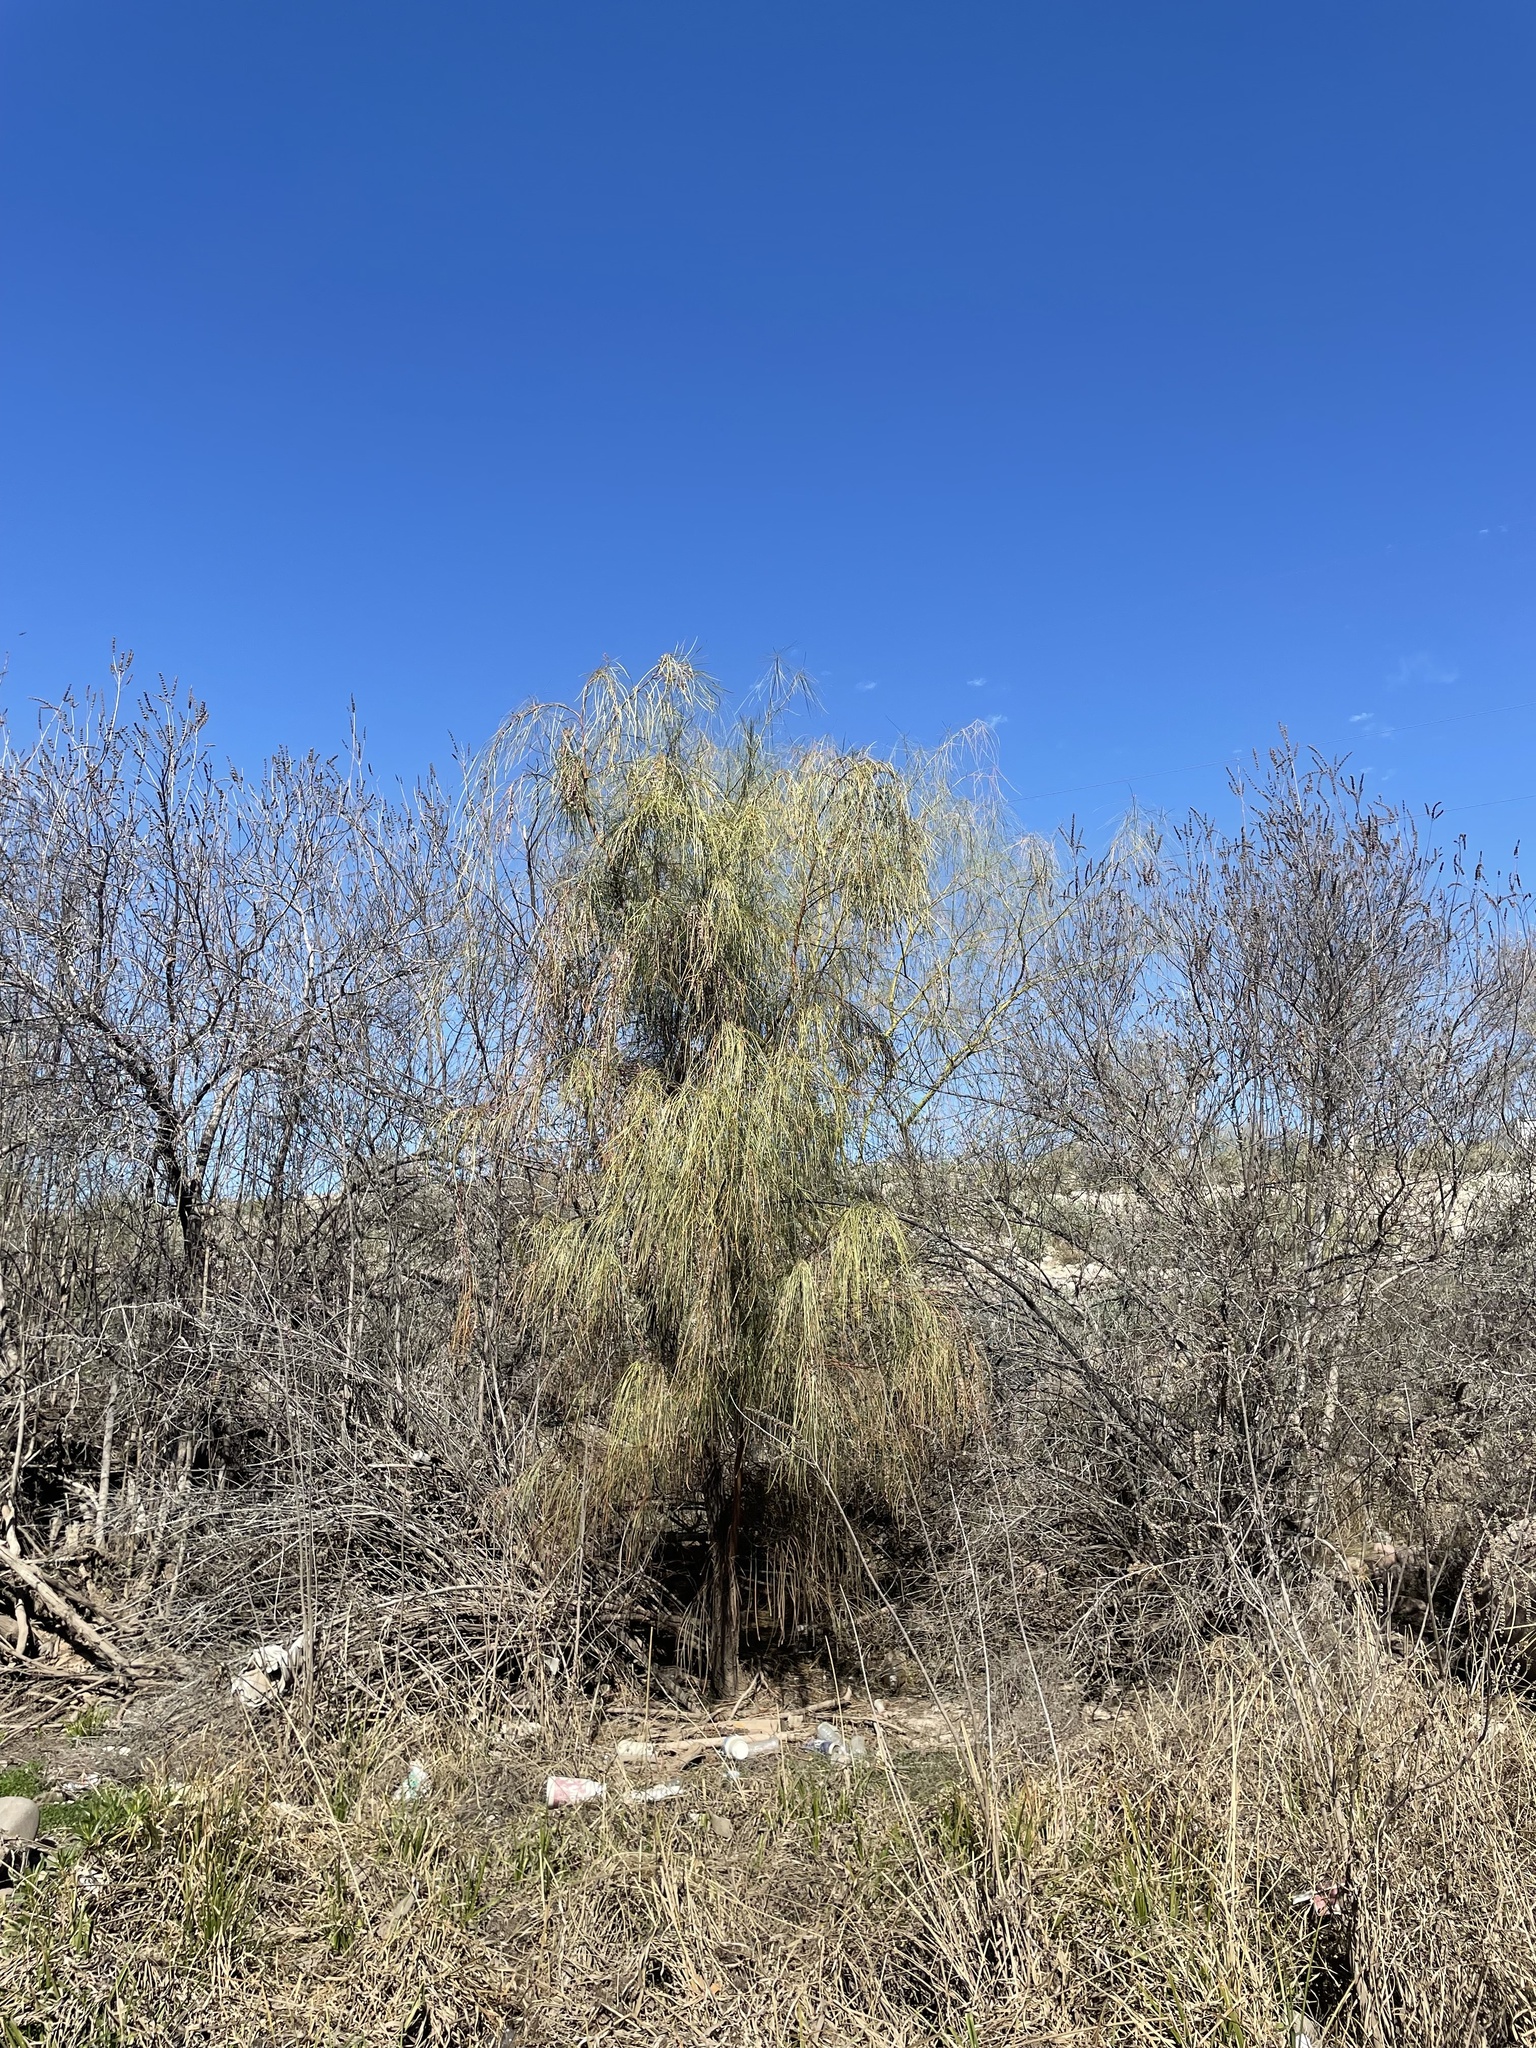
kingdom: Plantae
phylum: Tracheophyta
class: Magnoliopsida
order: Fabales
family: Fabaceae
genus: Acacia
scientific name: Acacia stenophylla
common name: River cooba
